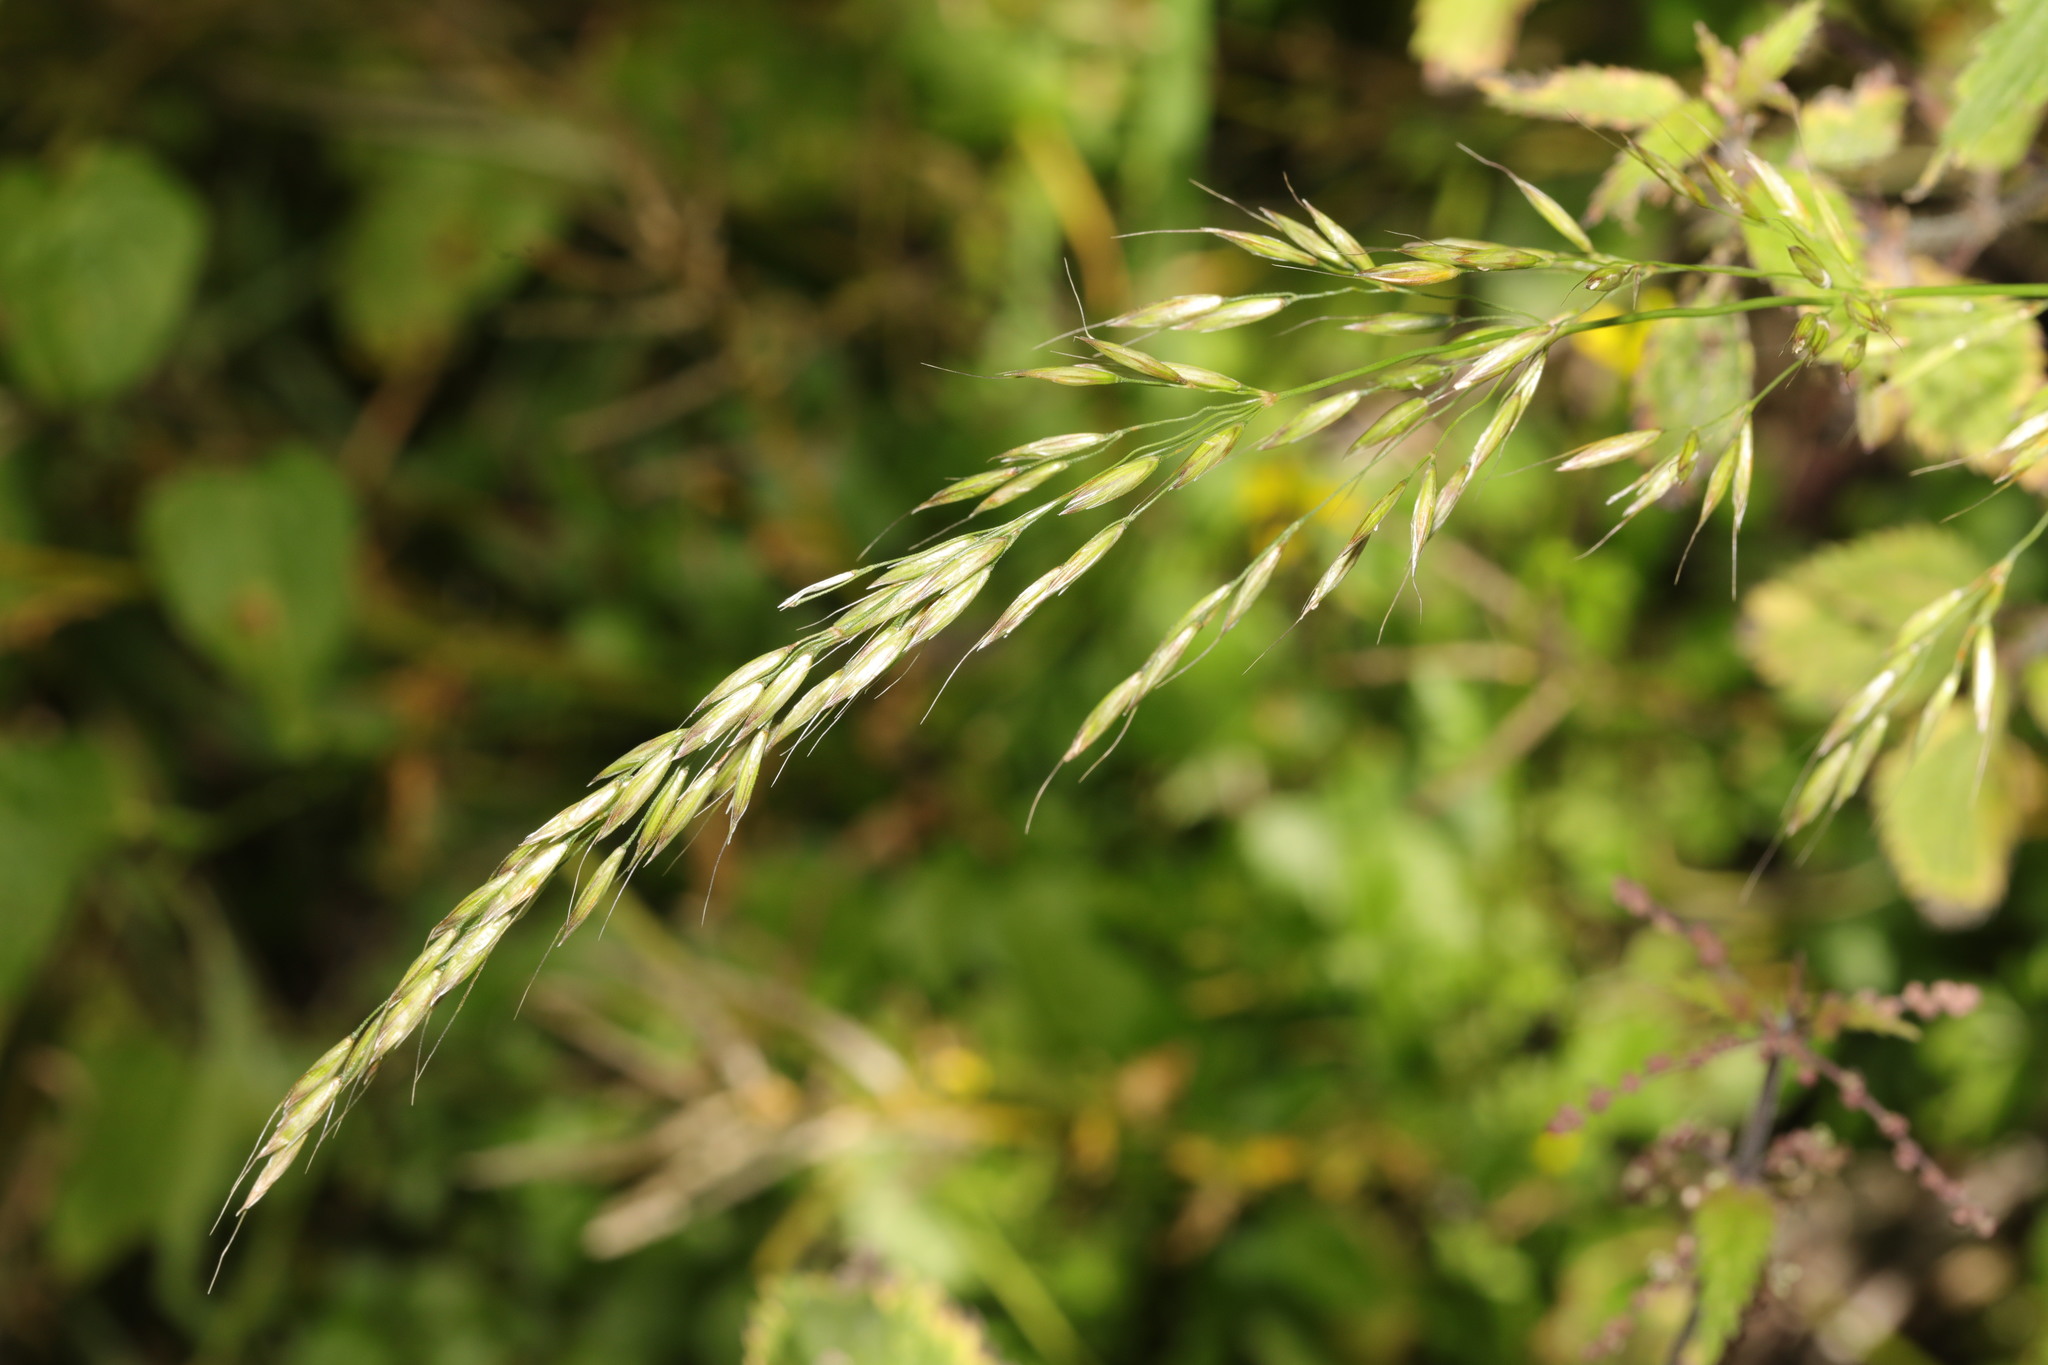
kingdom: Plantae
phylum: Tracheophyta
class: Liliopsida
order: Poales
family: Poaceae
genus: Arrhenatherum
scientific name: Arrhenatherum elatius
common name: Tall oatgrass
